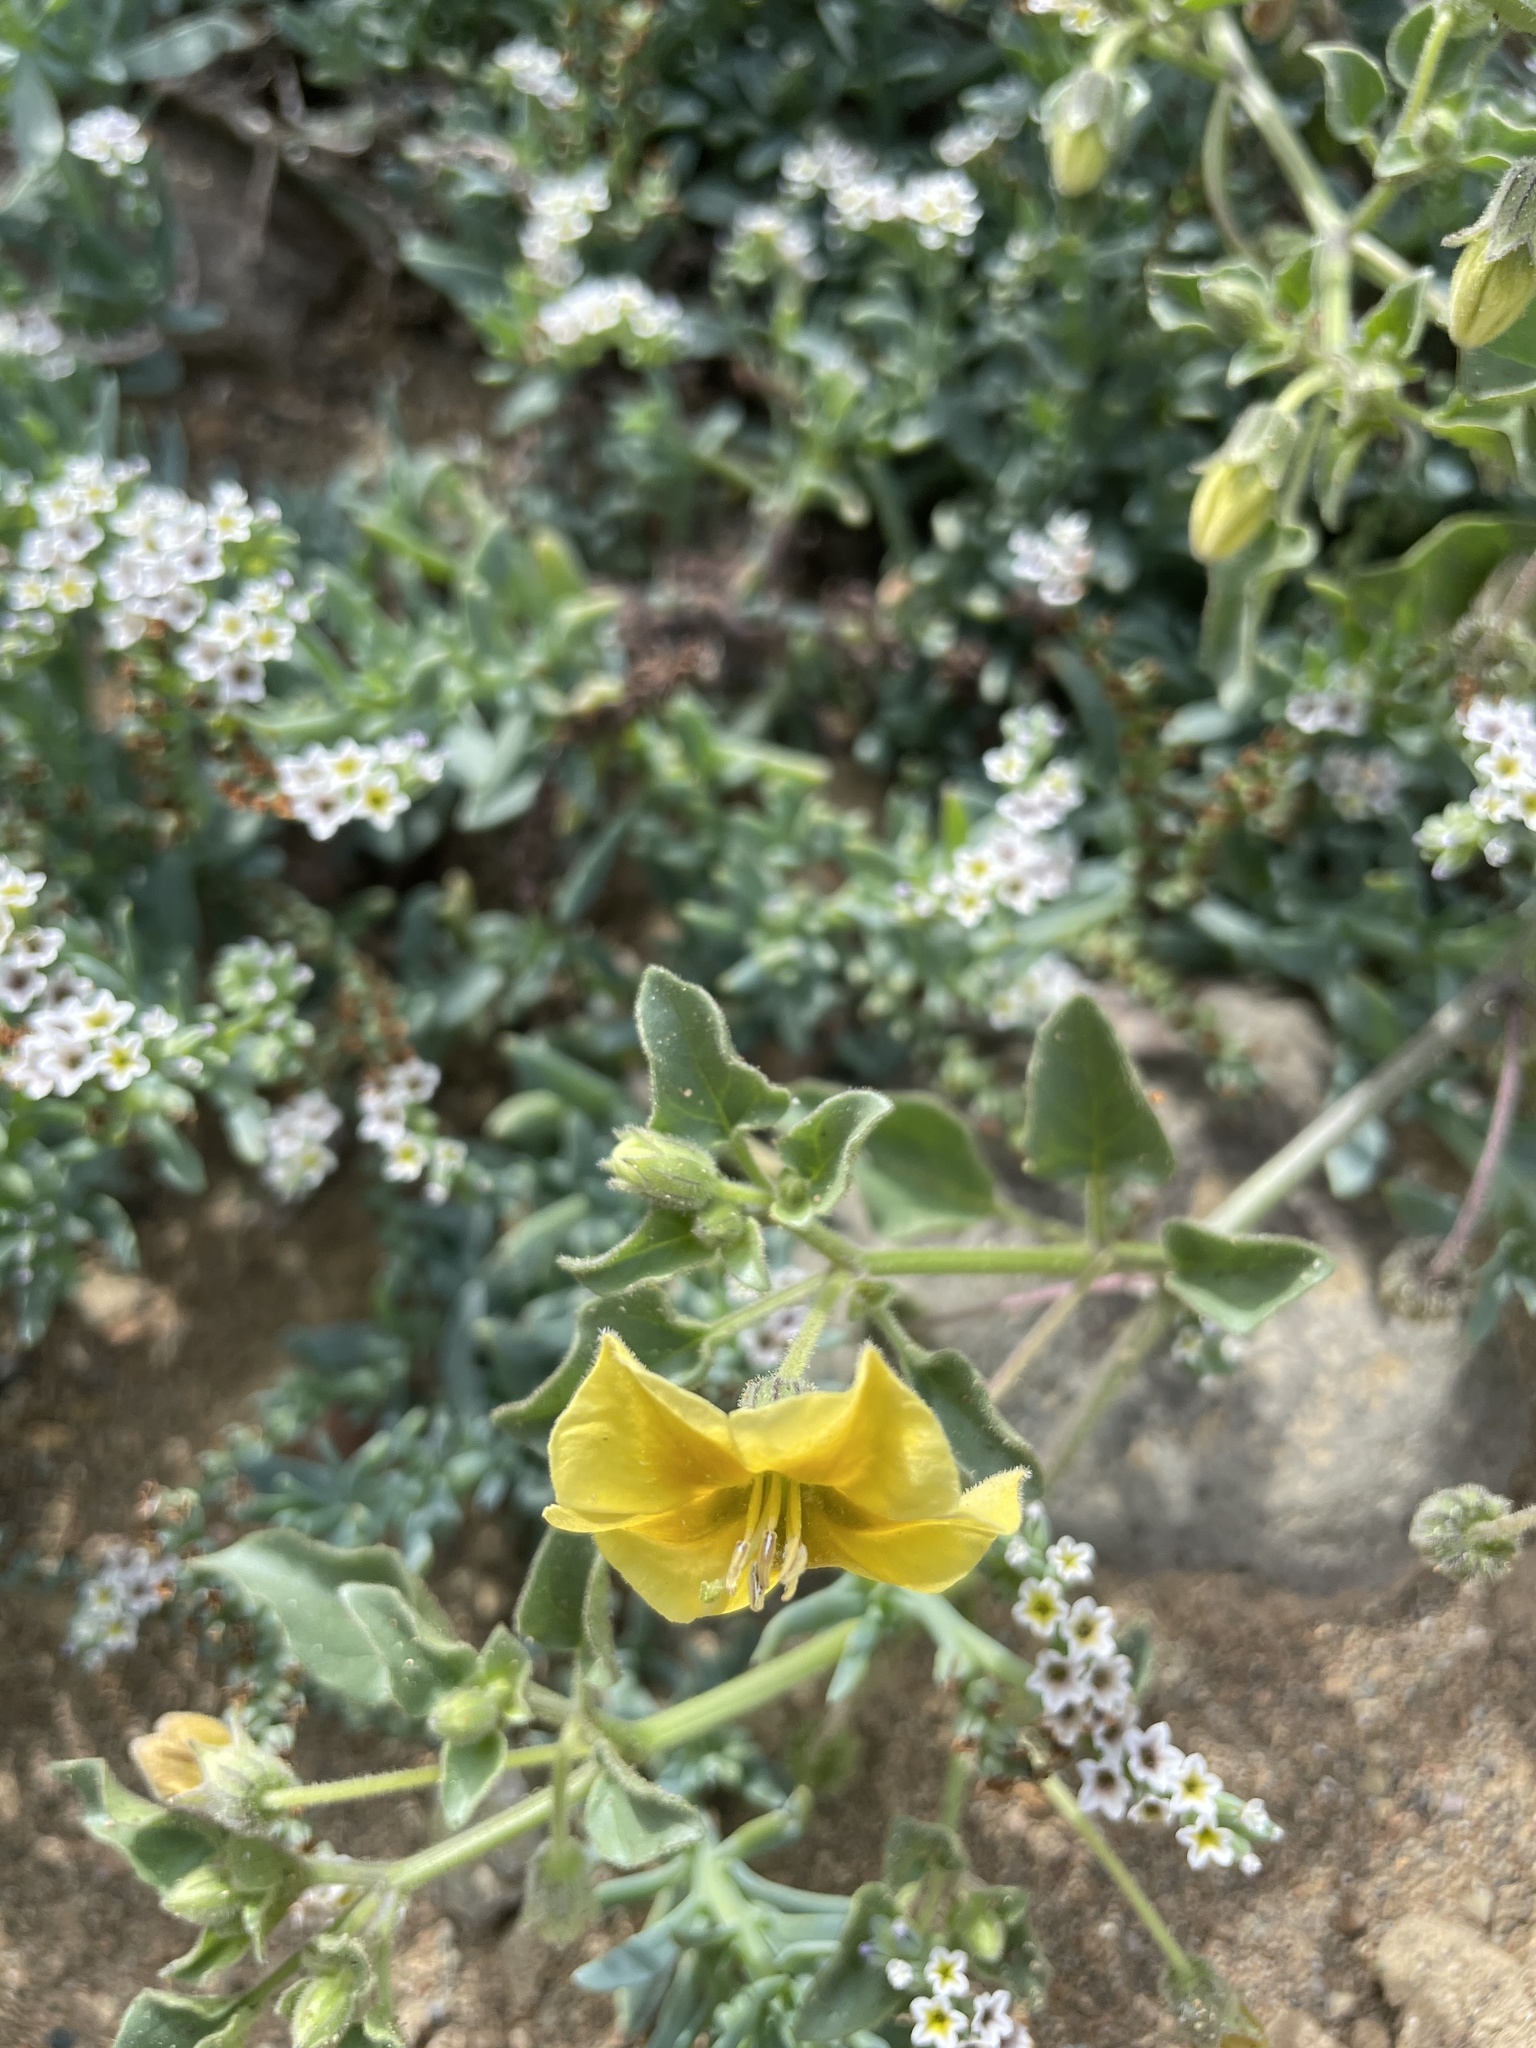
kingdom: Plantae
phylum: Tracheophyta
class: Magnoliopsida
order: Solanales
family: Solanaceae
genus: Physalis
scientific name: Physalis crassifolia
